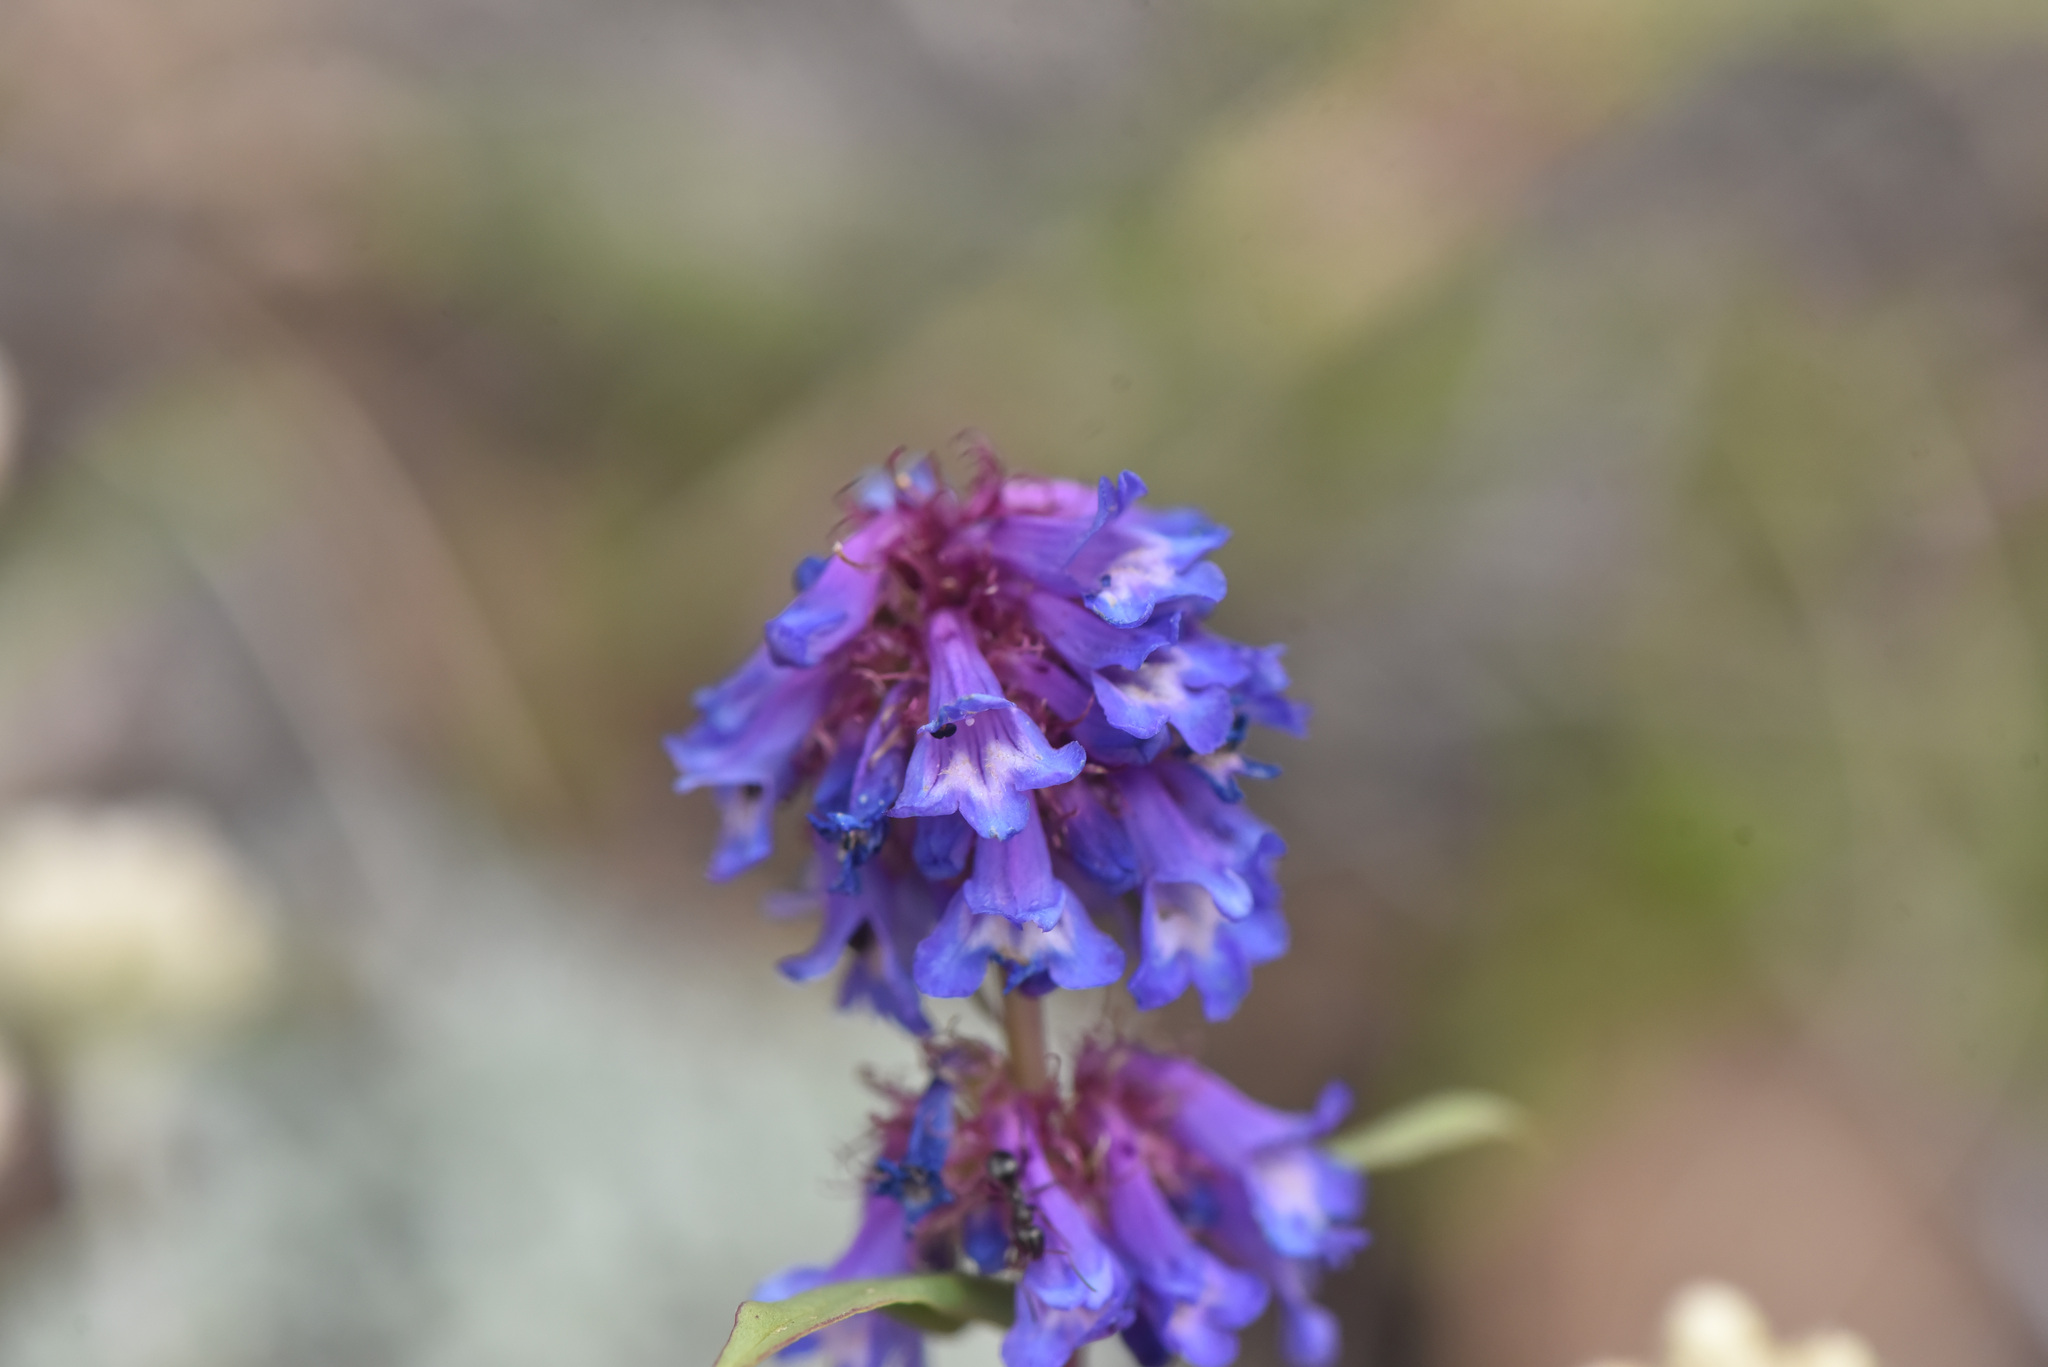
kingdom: Plantae
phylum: Tracheophyta
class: Magnoliopsida
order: Lamiales
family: Plantaginaceae
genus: Penstemon
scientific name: Penstemon procerus
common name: Small-flower penstemon
